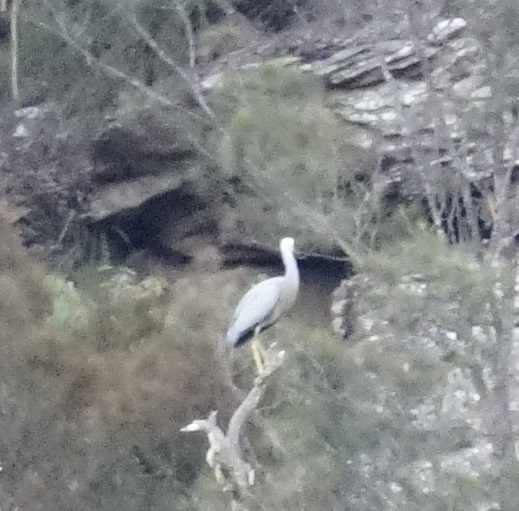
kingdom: Animalia
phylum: Chordata
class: Aves
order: Pelecaniformes
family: Ardeidae
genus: Egretta
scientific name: Egretta novaehollandiae
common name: White-faced heron
